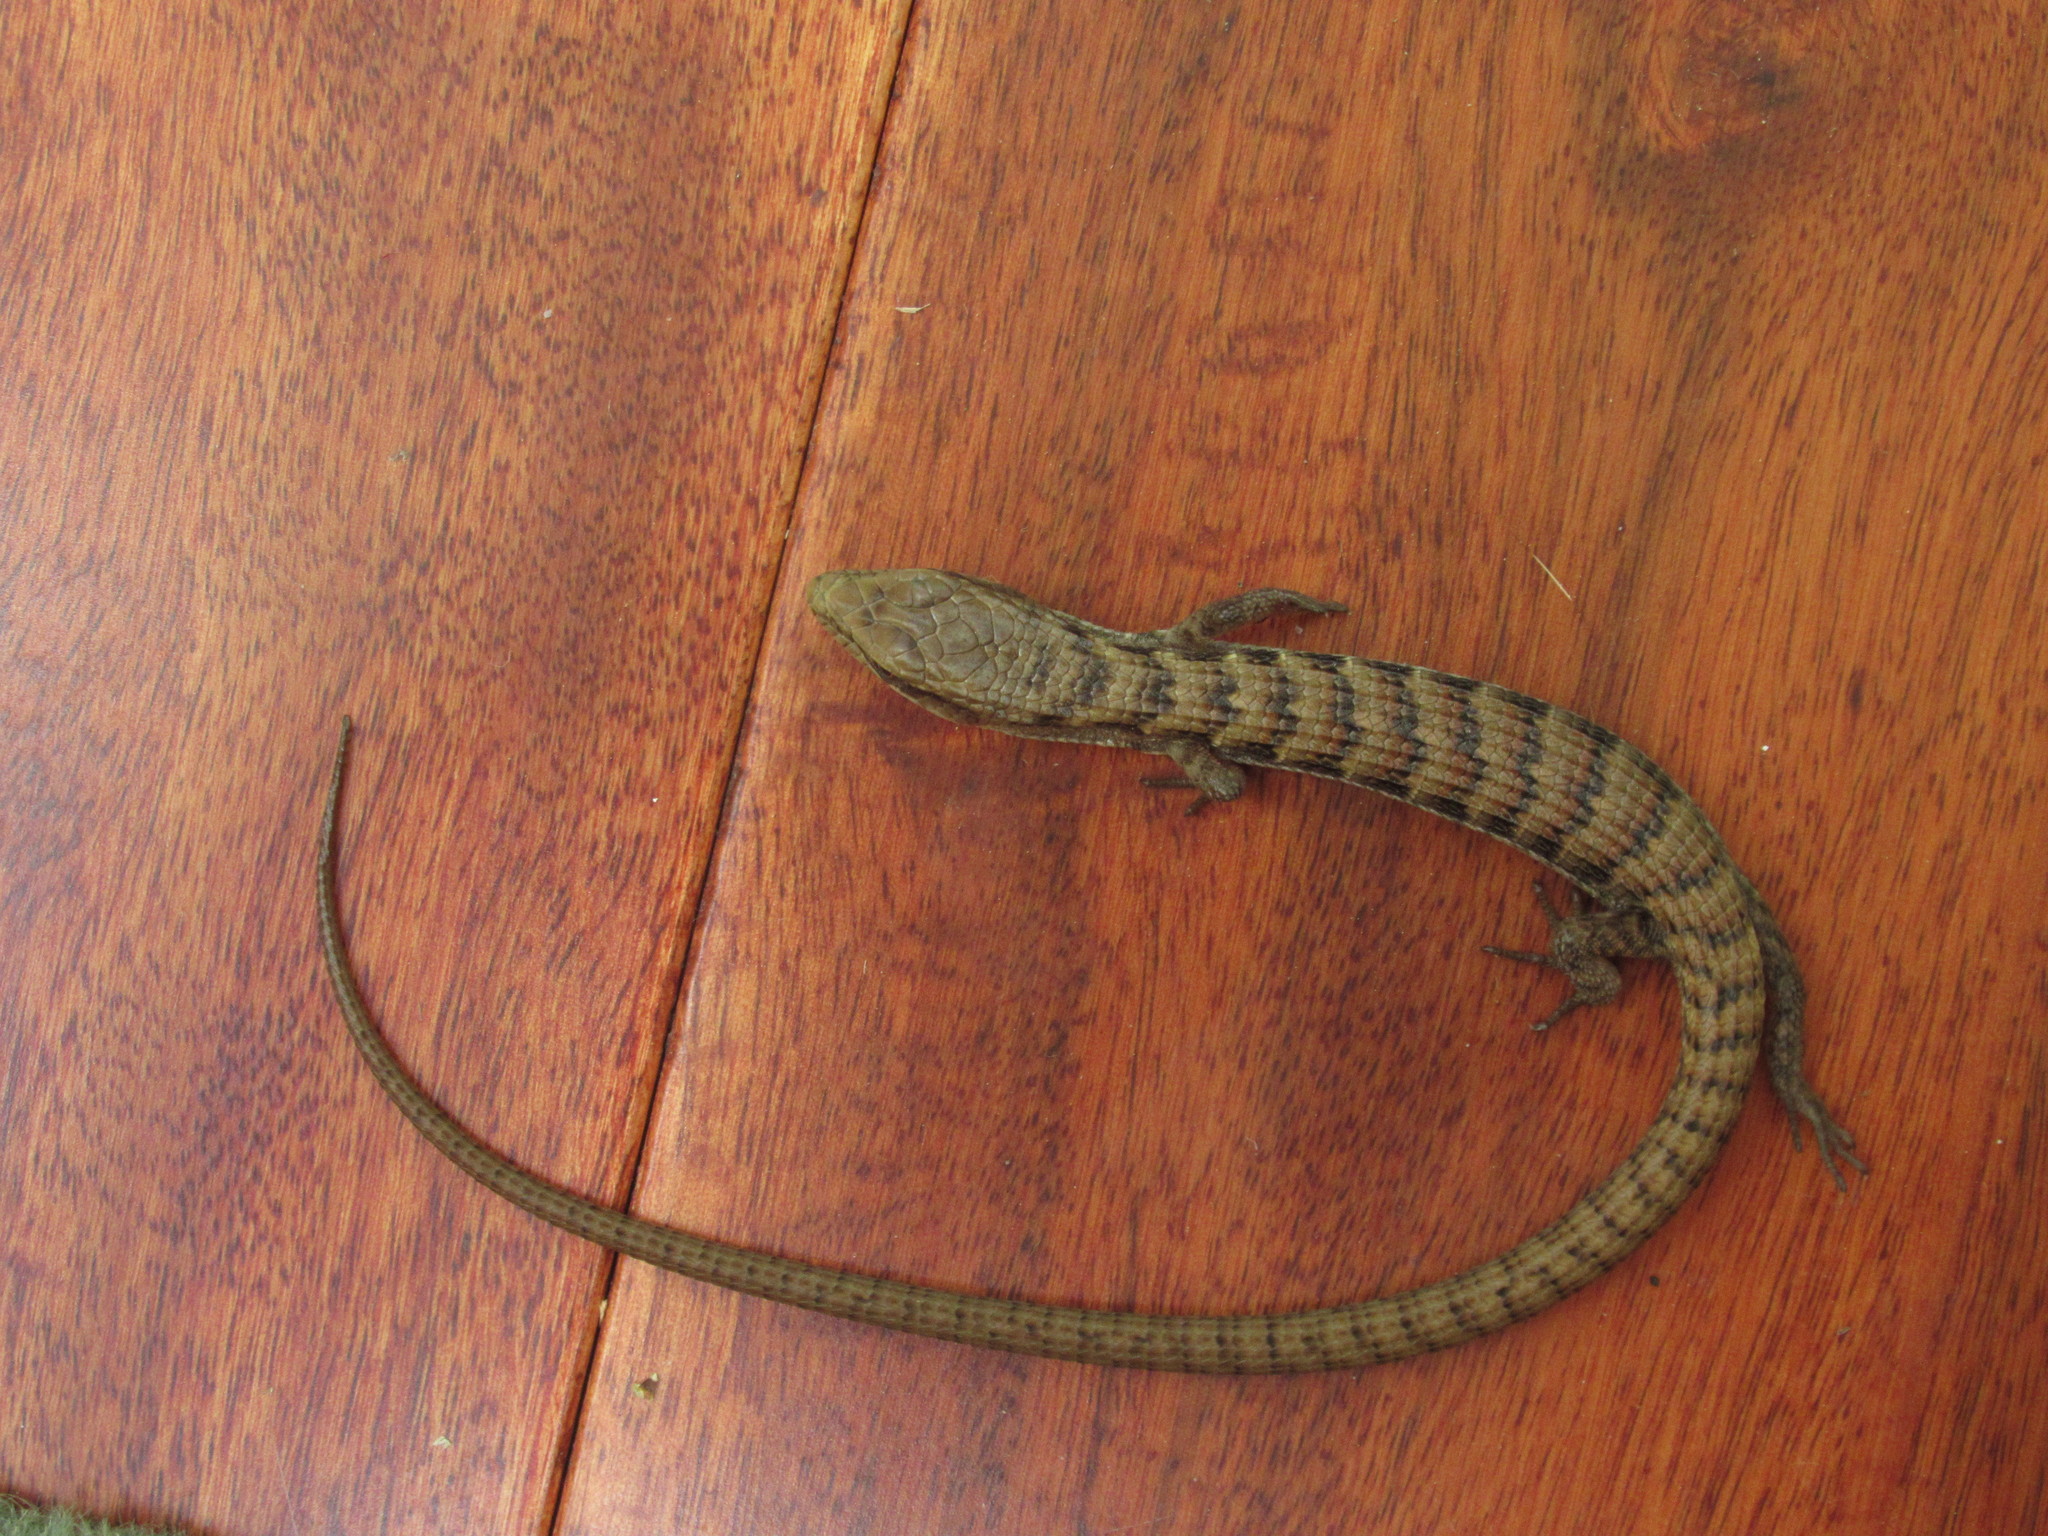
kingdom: Animalia
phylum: Chordata
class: Squamata
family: Anguidae
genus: Elgaria
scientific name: Elgaria multicarinata
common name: Southern alligator lizard
